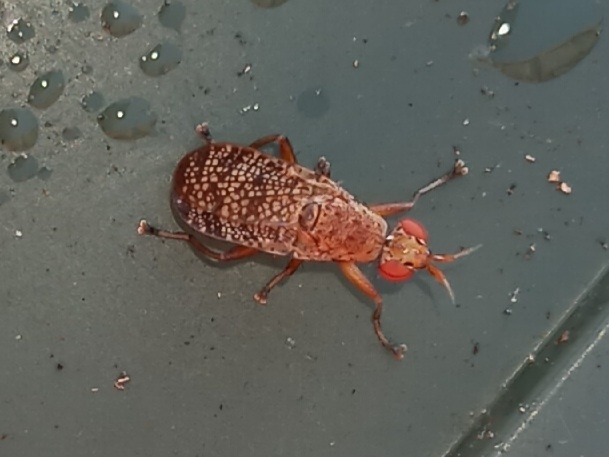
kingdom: Animalia
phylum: Arthropoda
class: Insecta
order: Diptera
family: Sciomyzidae
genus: Euthycera
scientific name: Euthycera flavescens
